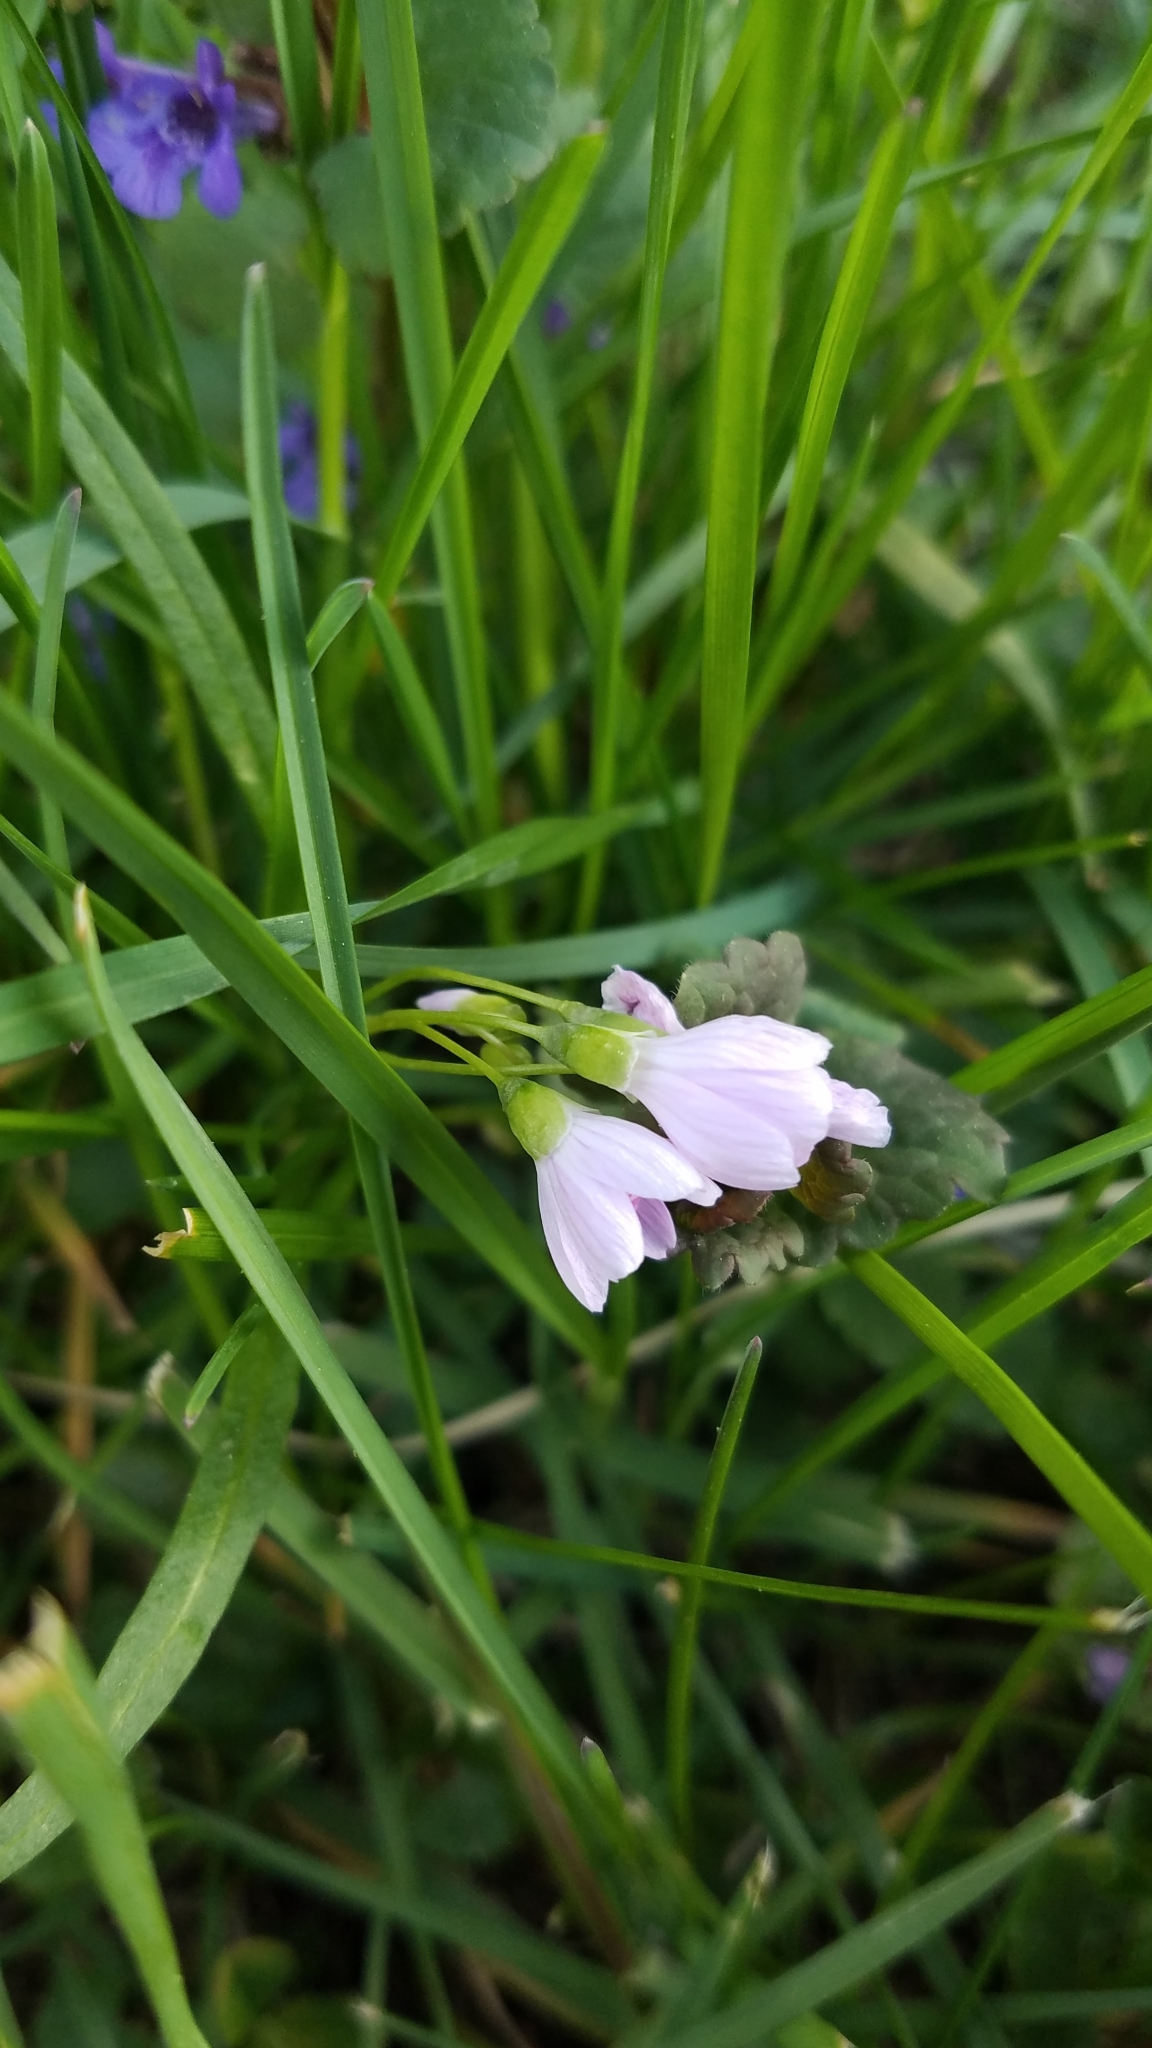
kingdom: Plantae
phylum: Tracheophyta
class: Magnoliopsida
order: Caryophyllales
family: Montiaceae
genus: Claytonia
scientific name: Claytonia virginica
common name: Virginia springbeauty
